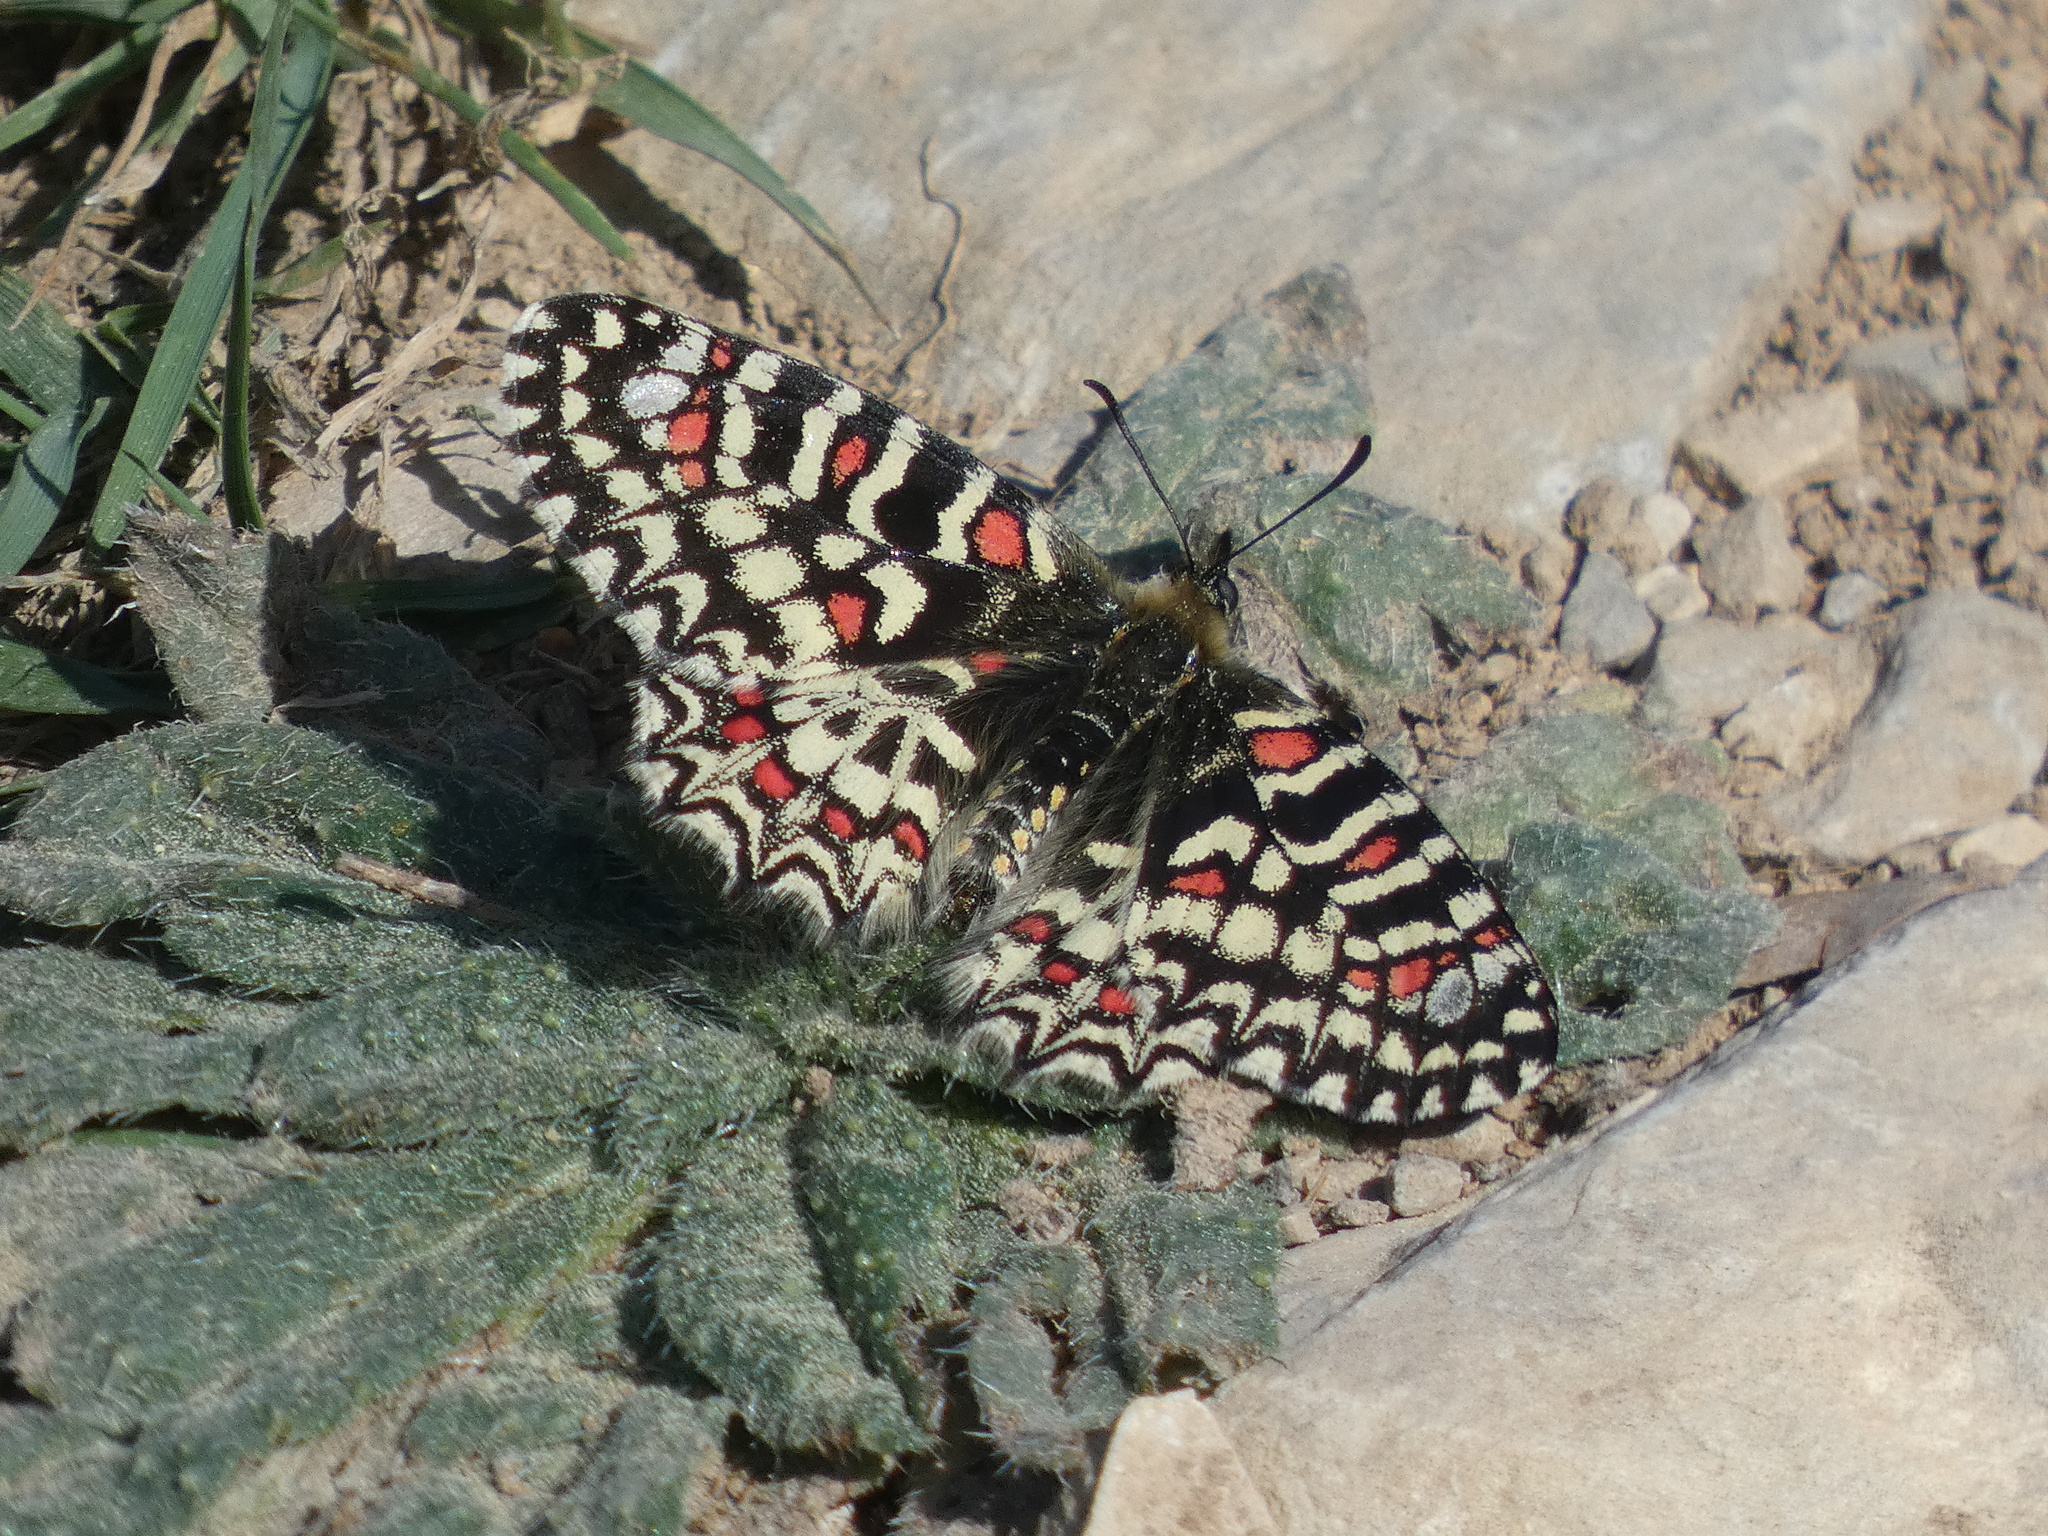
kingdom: Animalia
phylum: Arthropoda
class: Insecta
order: Lepidoptera
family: Papilionidae
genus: Zerynthia
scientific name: Zerynthia rumina
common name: Spanish festoon
